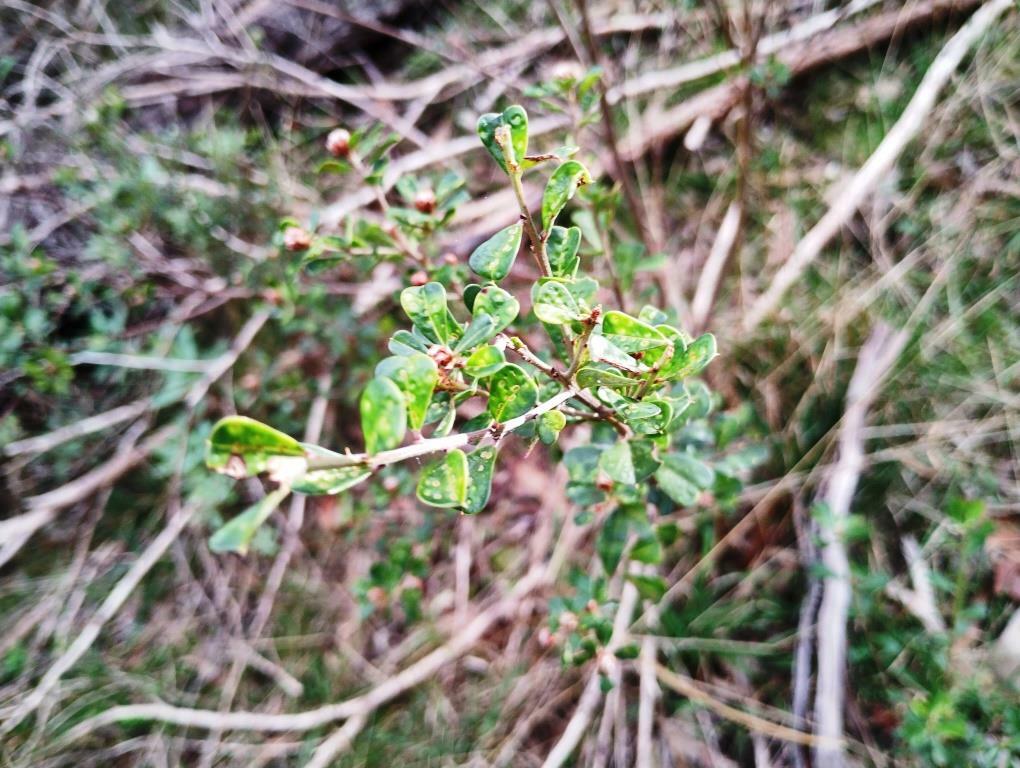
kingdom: Plantae
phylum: Tracheophyta
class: Magnoliopsida
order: Fabales
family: Fabaceae
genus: Pultenaea
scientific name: Pultenaea daphnoides
